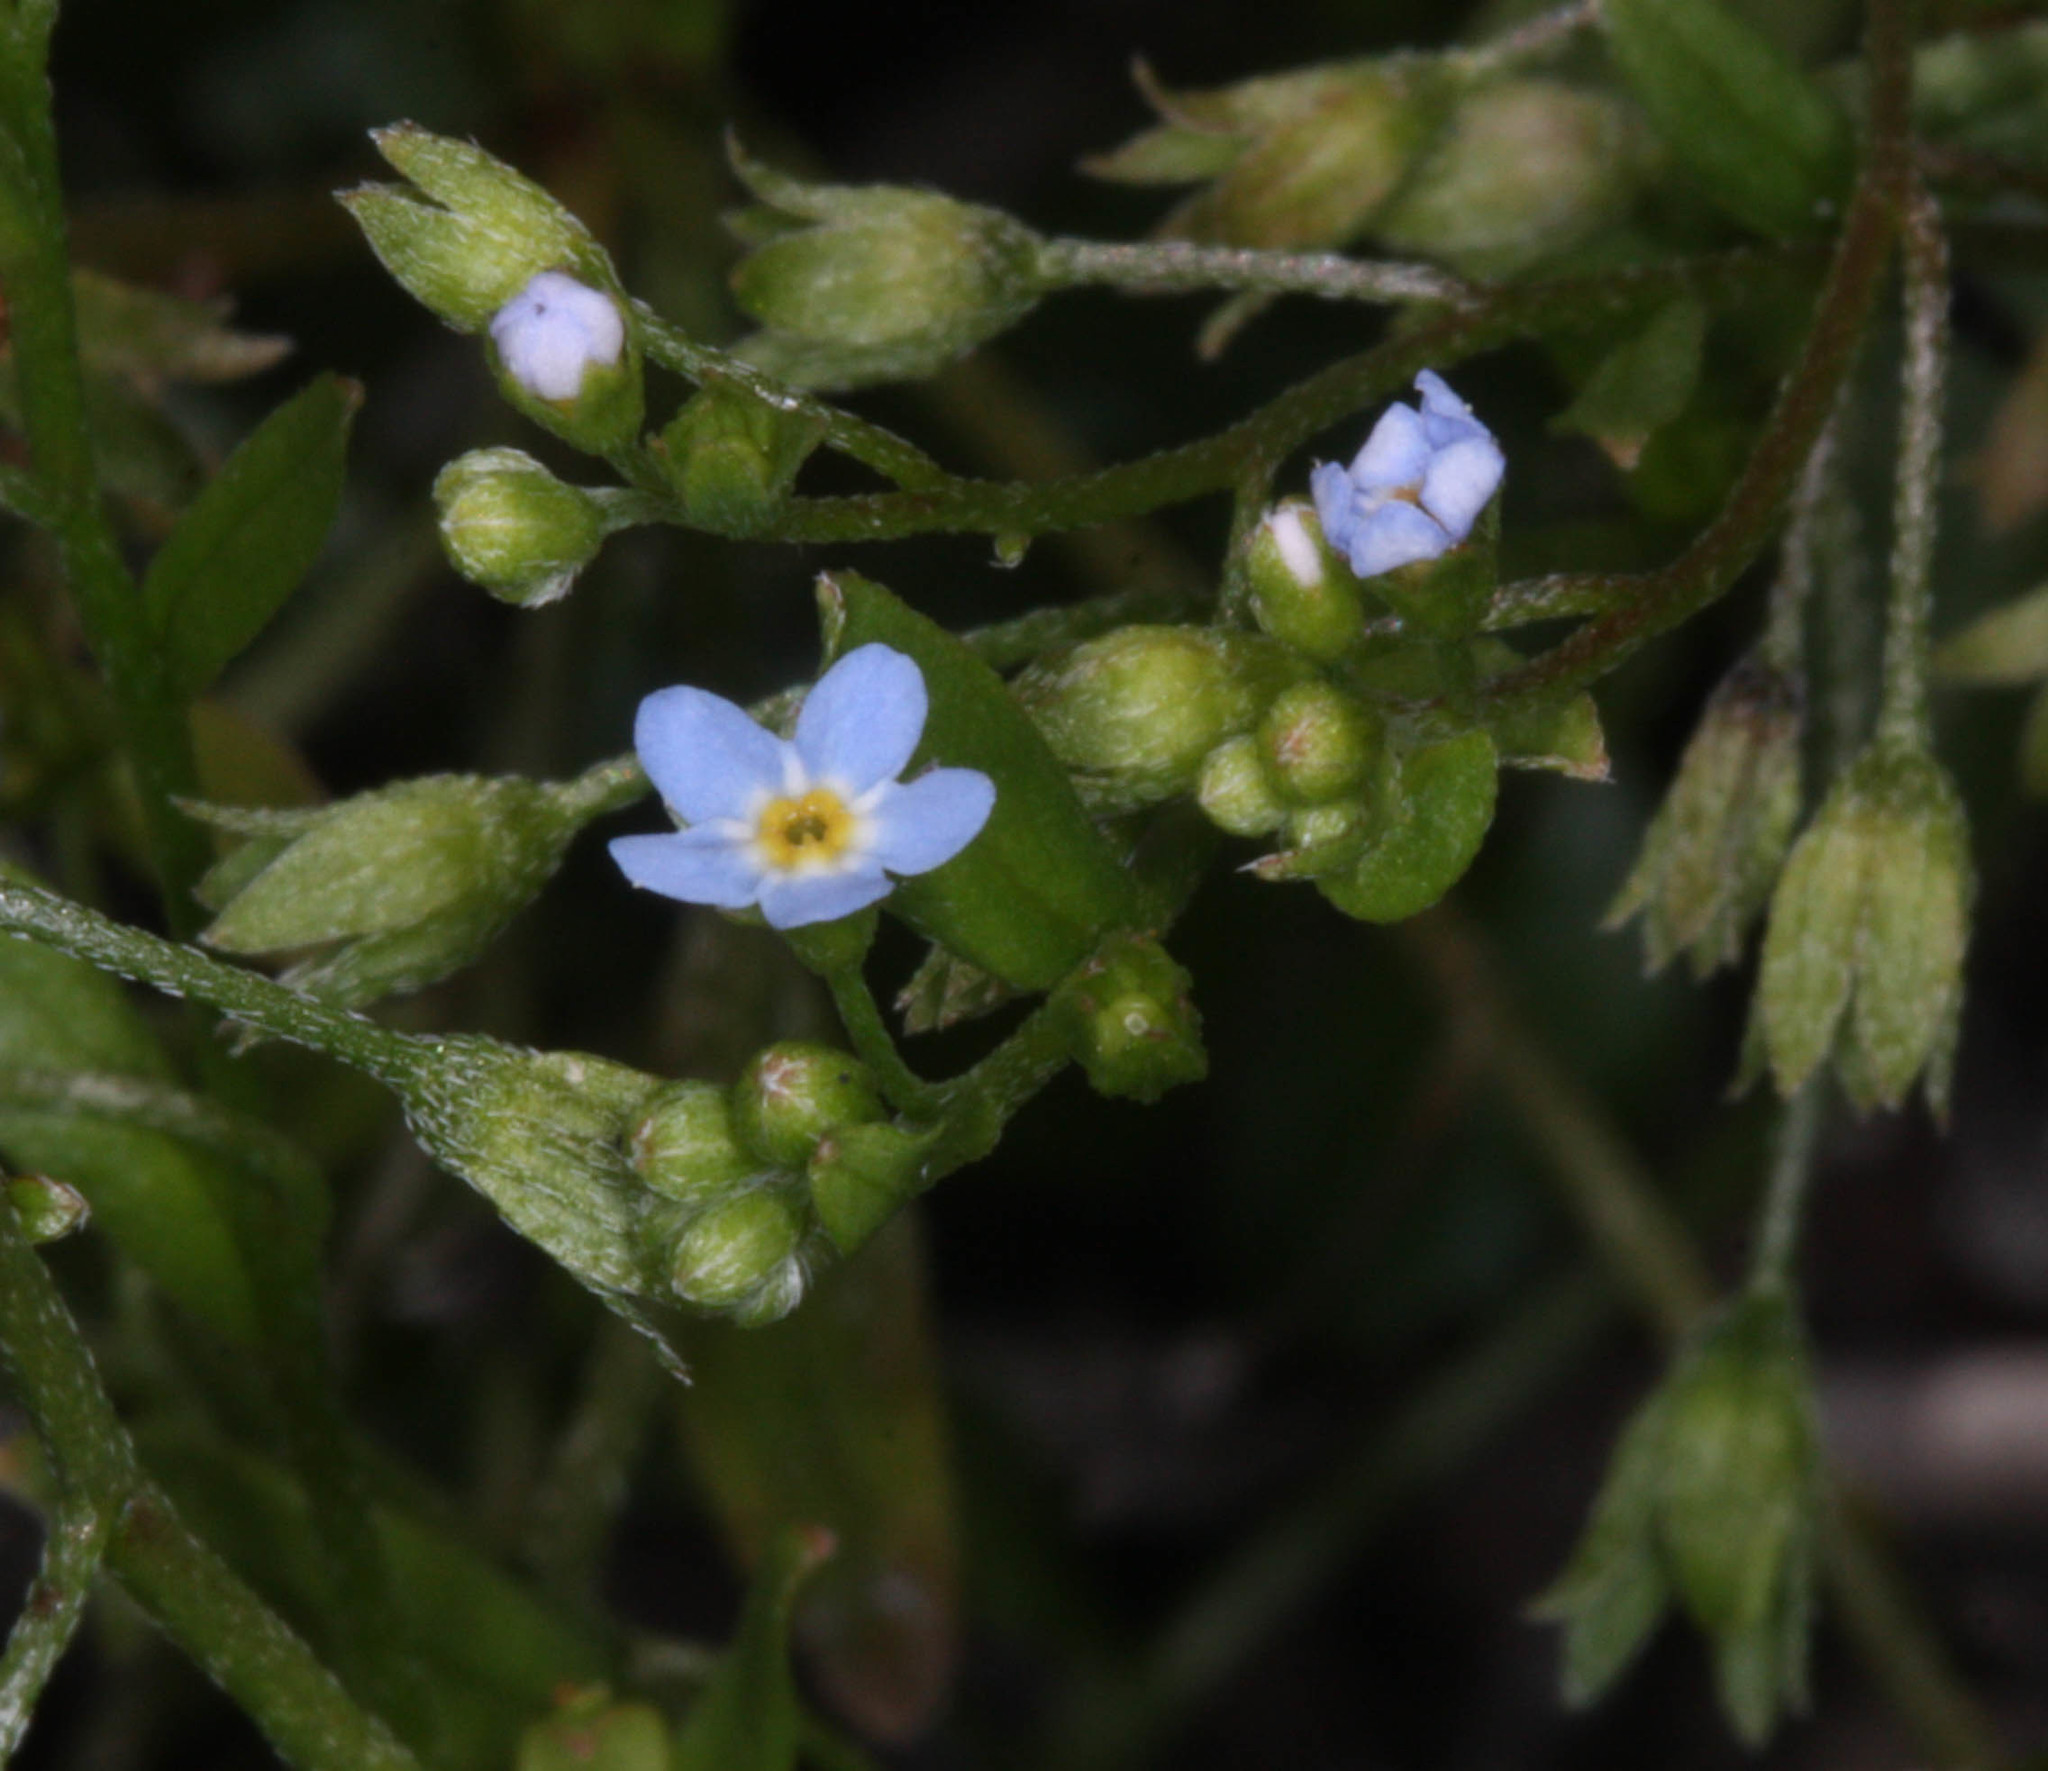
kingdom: Plantae
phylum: Tracheophyta
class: Magnoliopsida
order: Boraginales
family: Boraginaceae
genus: Myosotis
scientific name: Myosotis laxa
